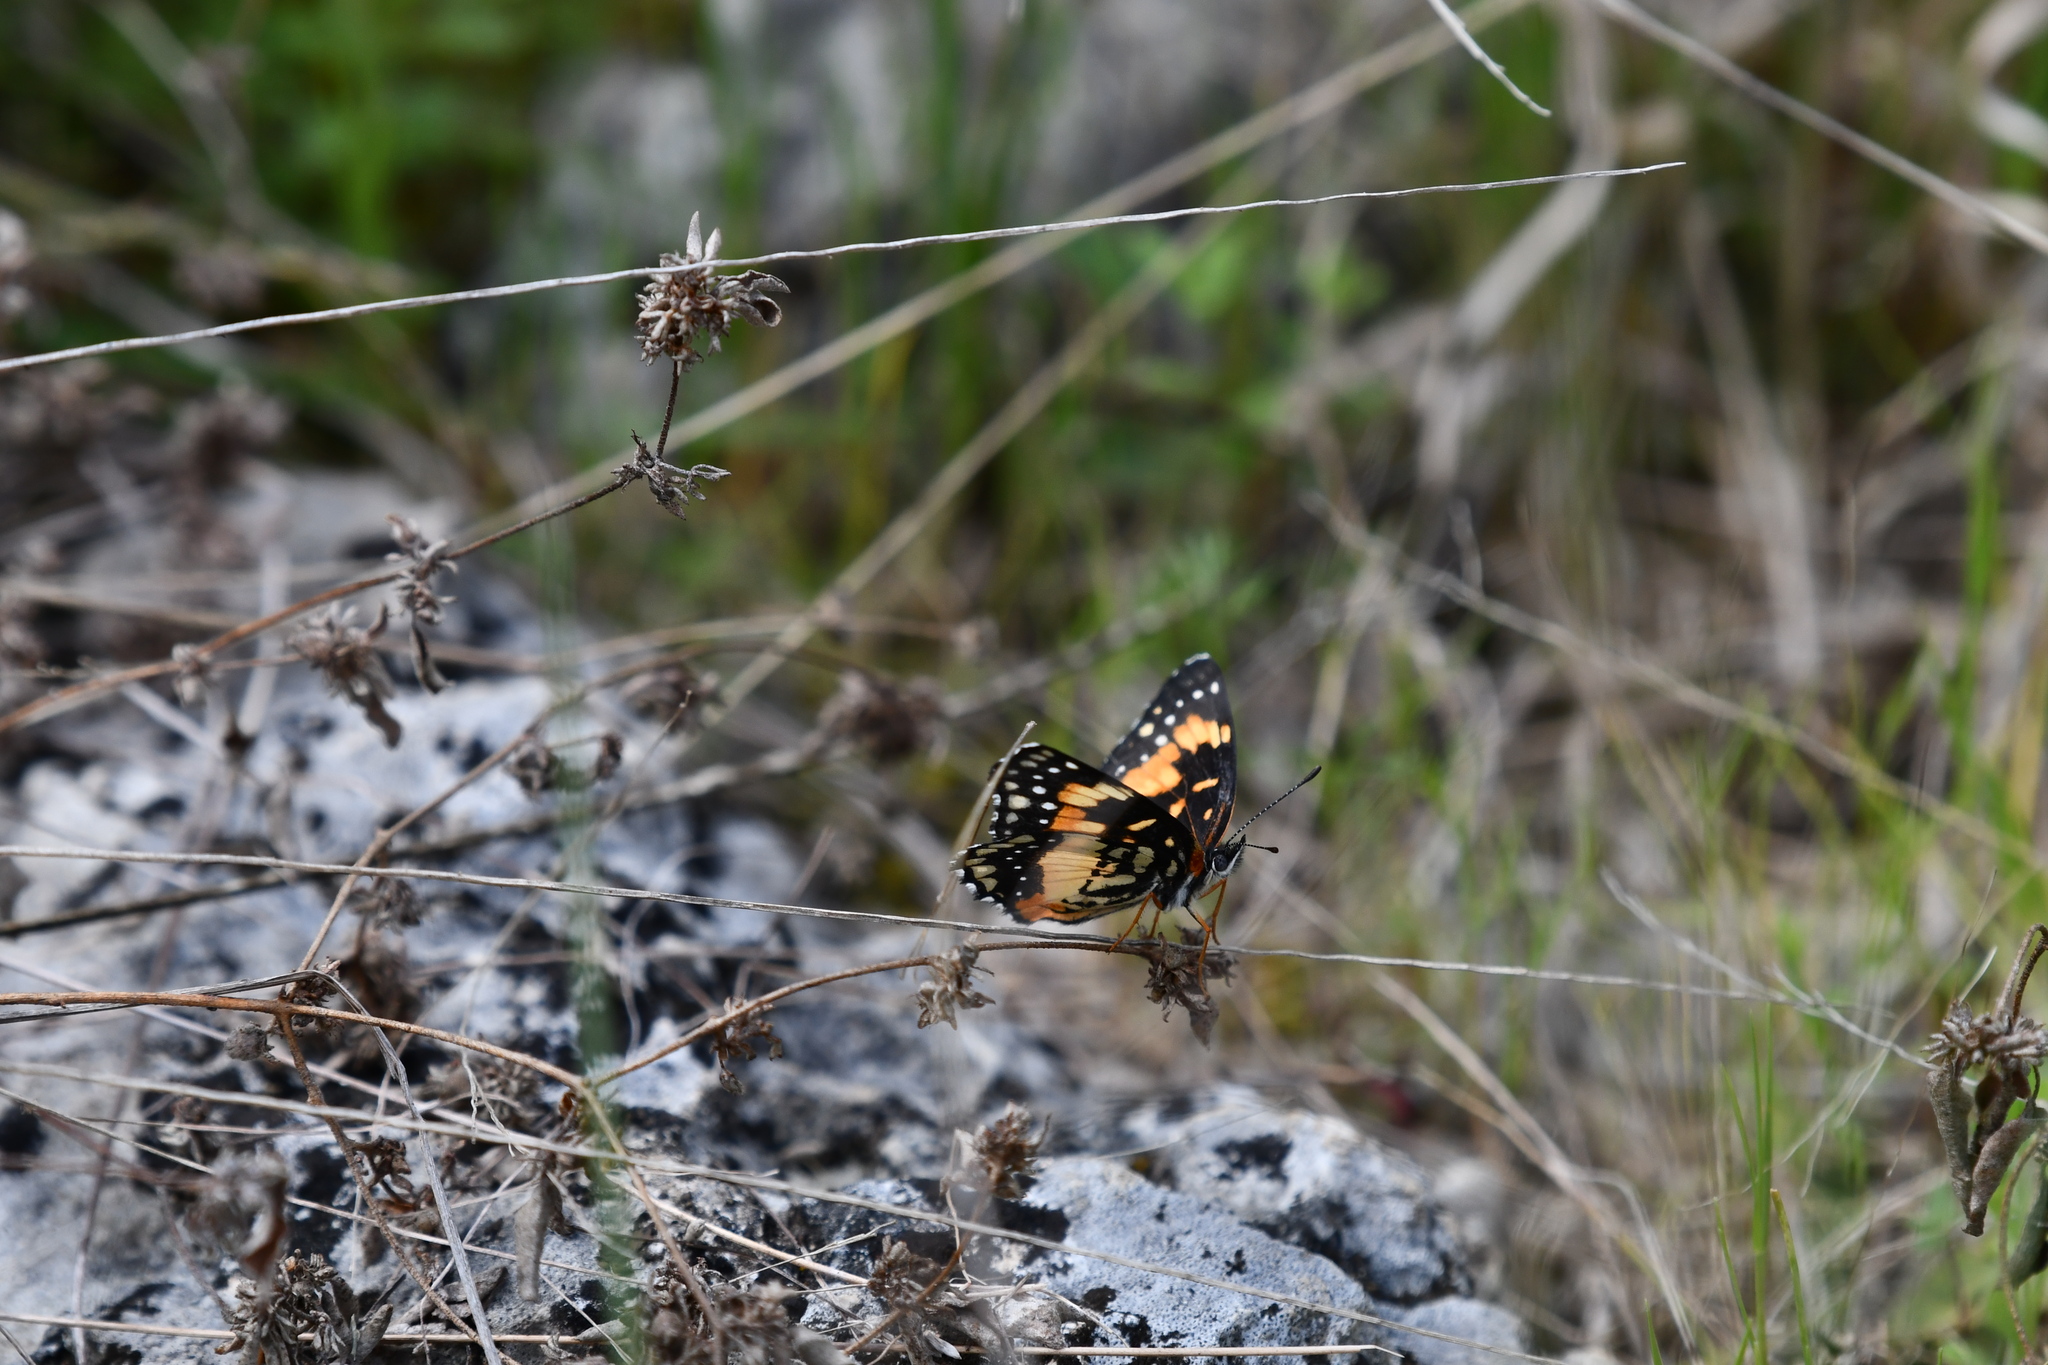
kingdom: Animalia
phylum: Arthropoda
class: Insecta
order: Lepidoptera
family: Nymphalidae
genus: Chlosyne
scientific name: Chlosyne lacinia
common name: Bordered patch
